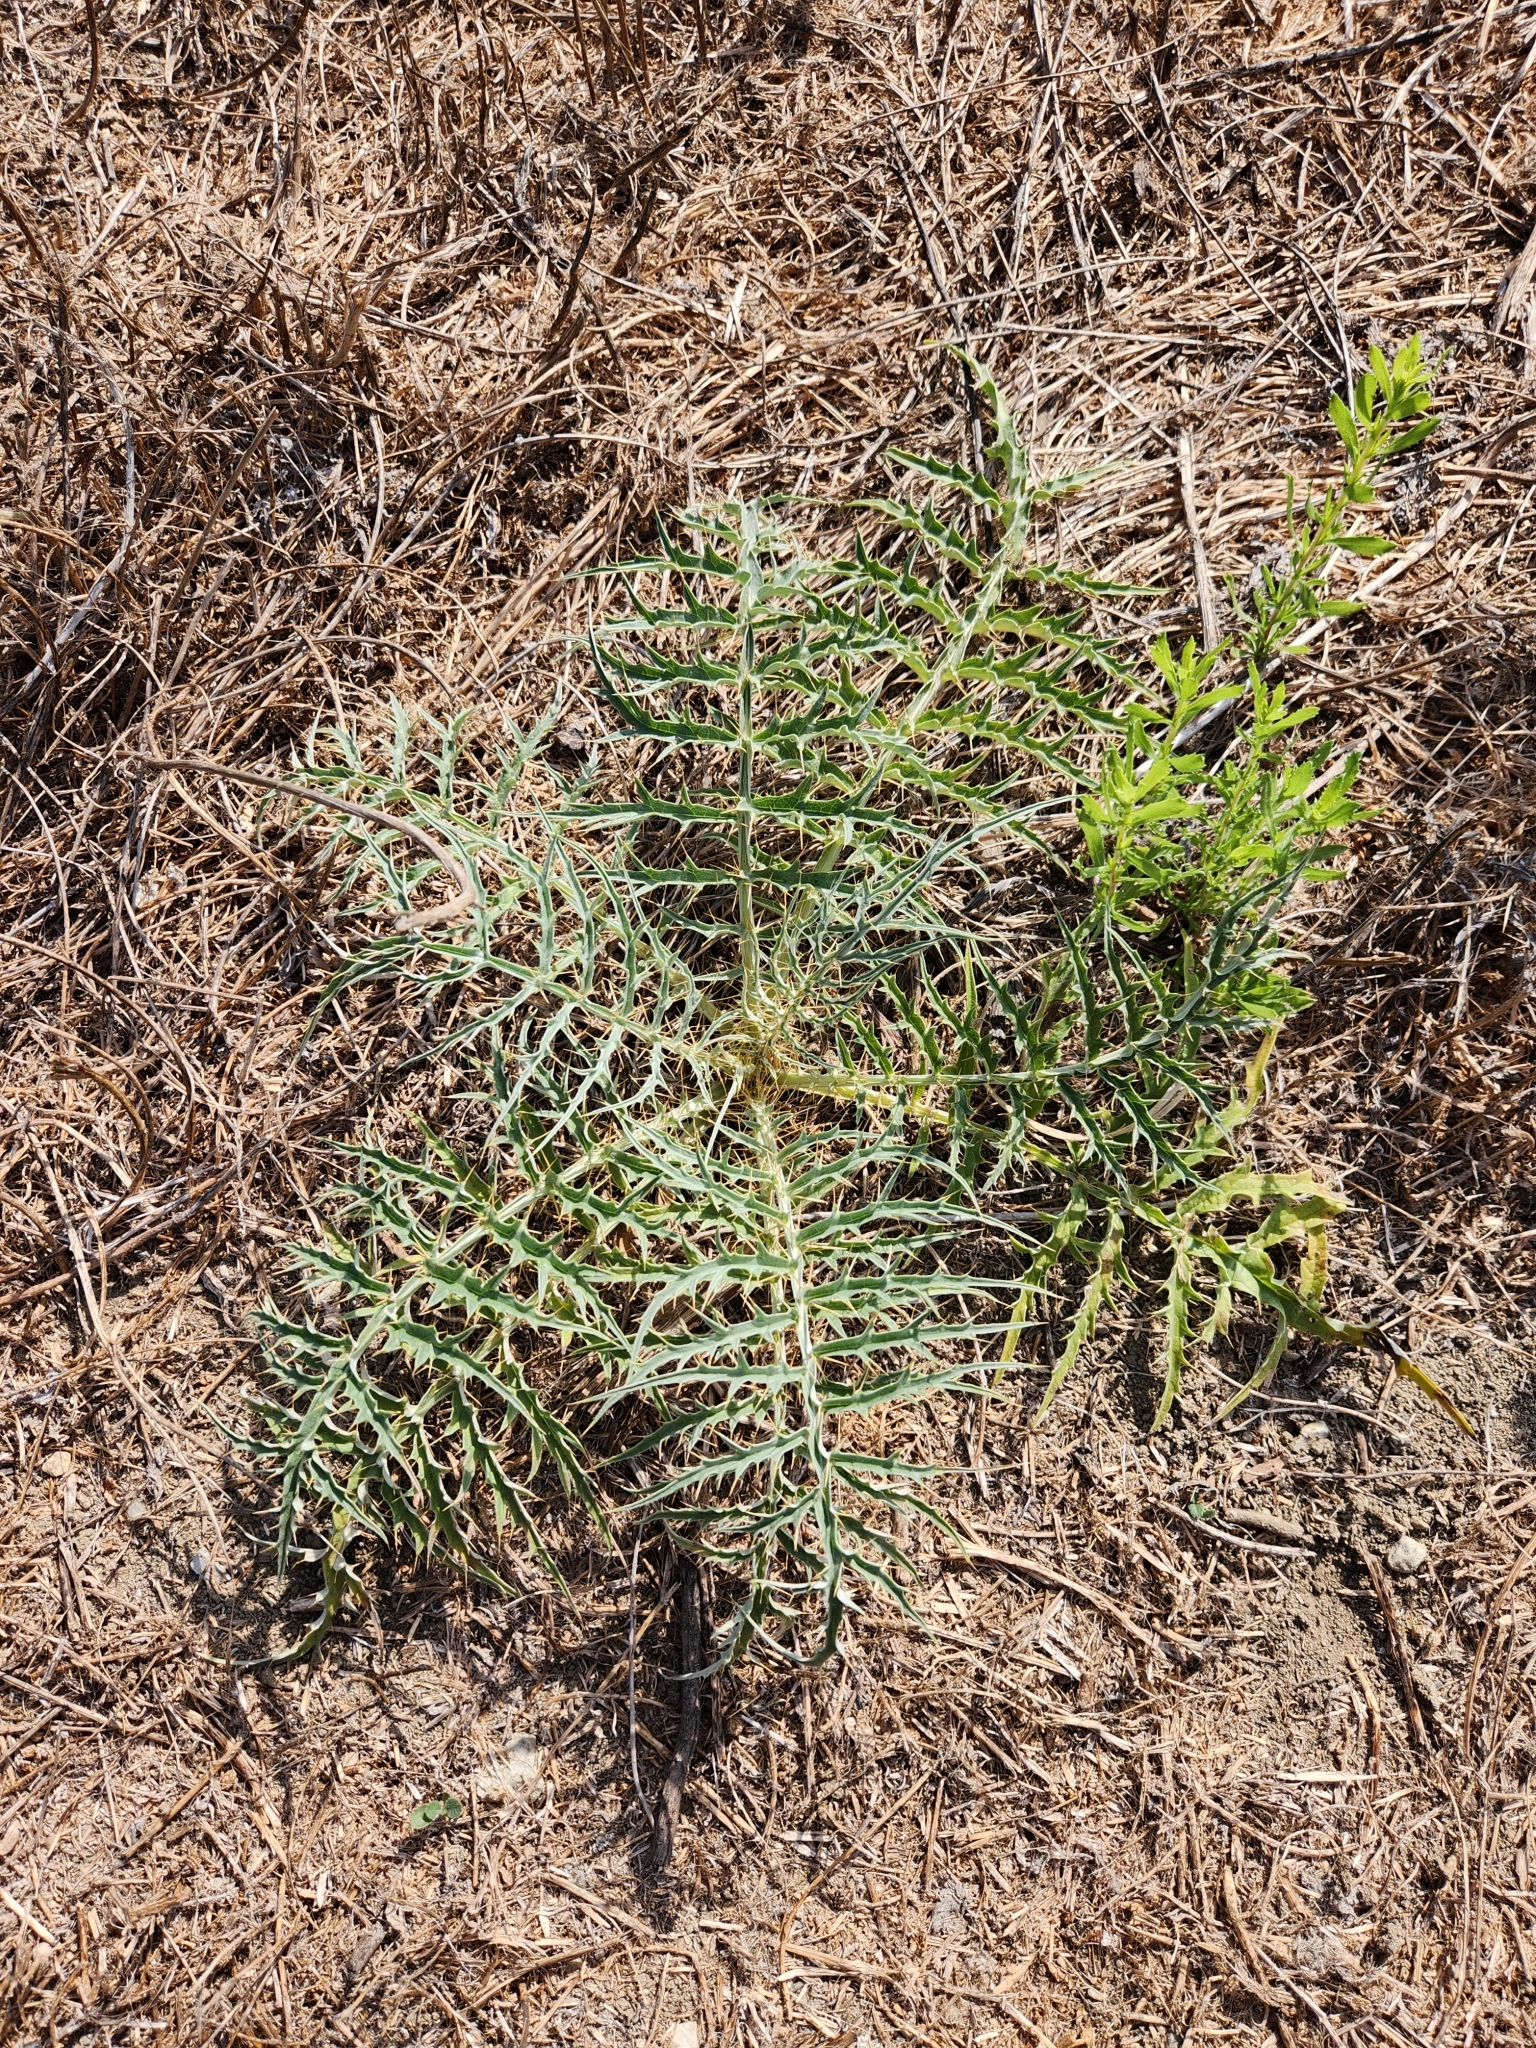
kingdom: Plantae
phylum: Tracheophyta
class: Magnoliopsida
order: Asterales
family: Asteraceae
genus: Cynara
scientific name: Cynara cardunculus
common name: Globe artichoke
